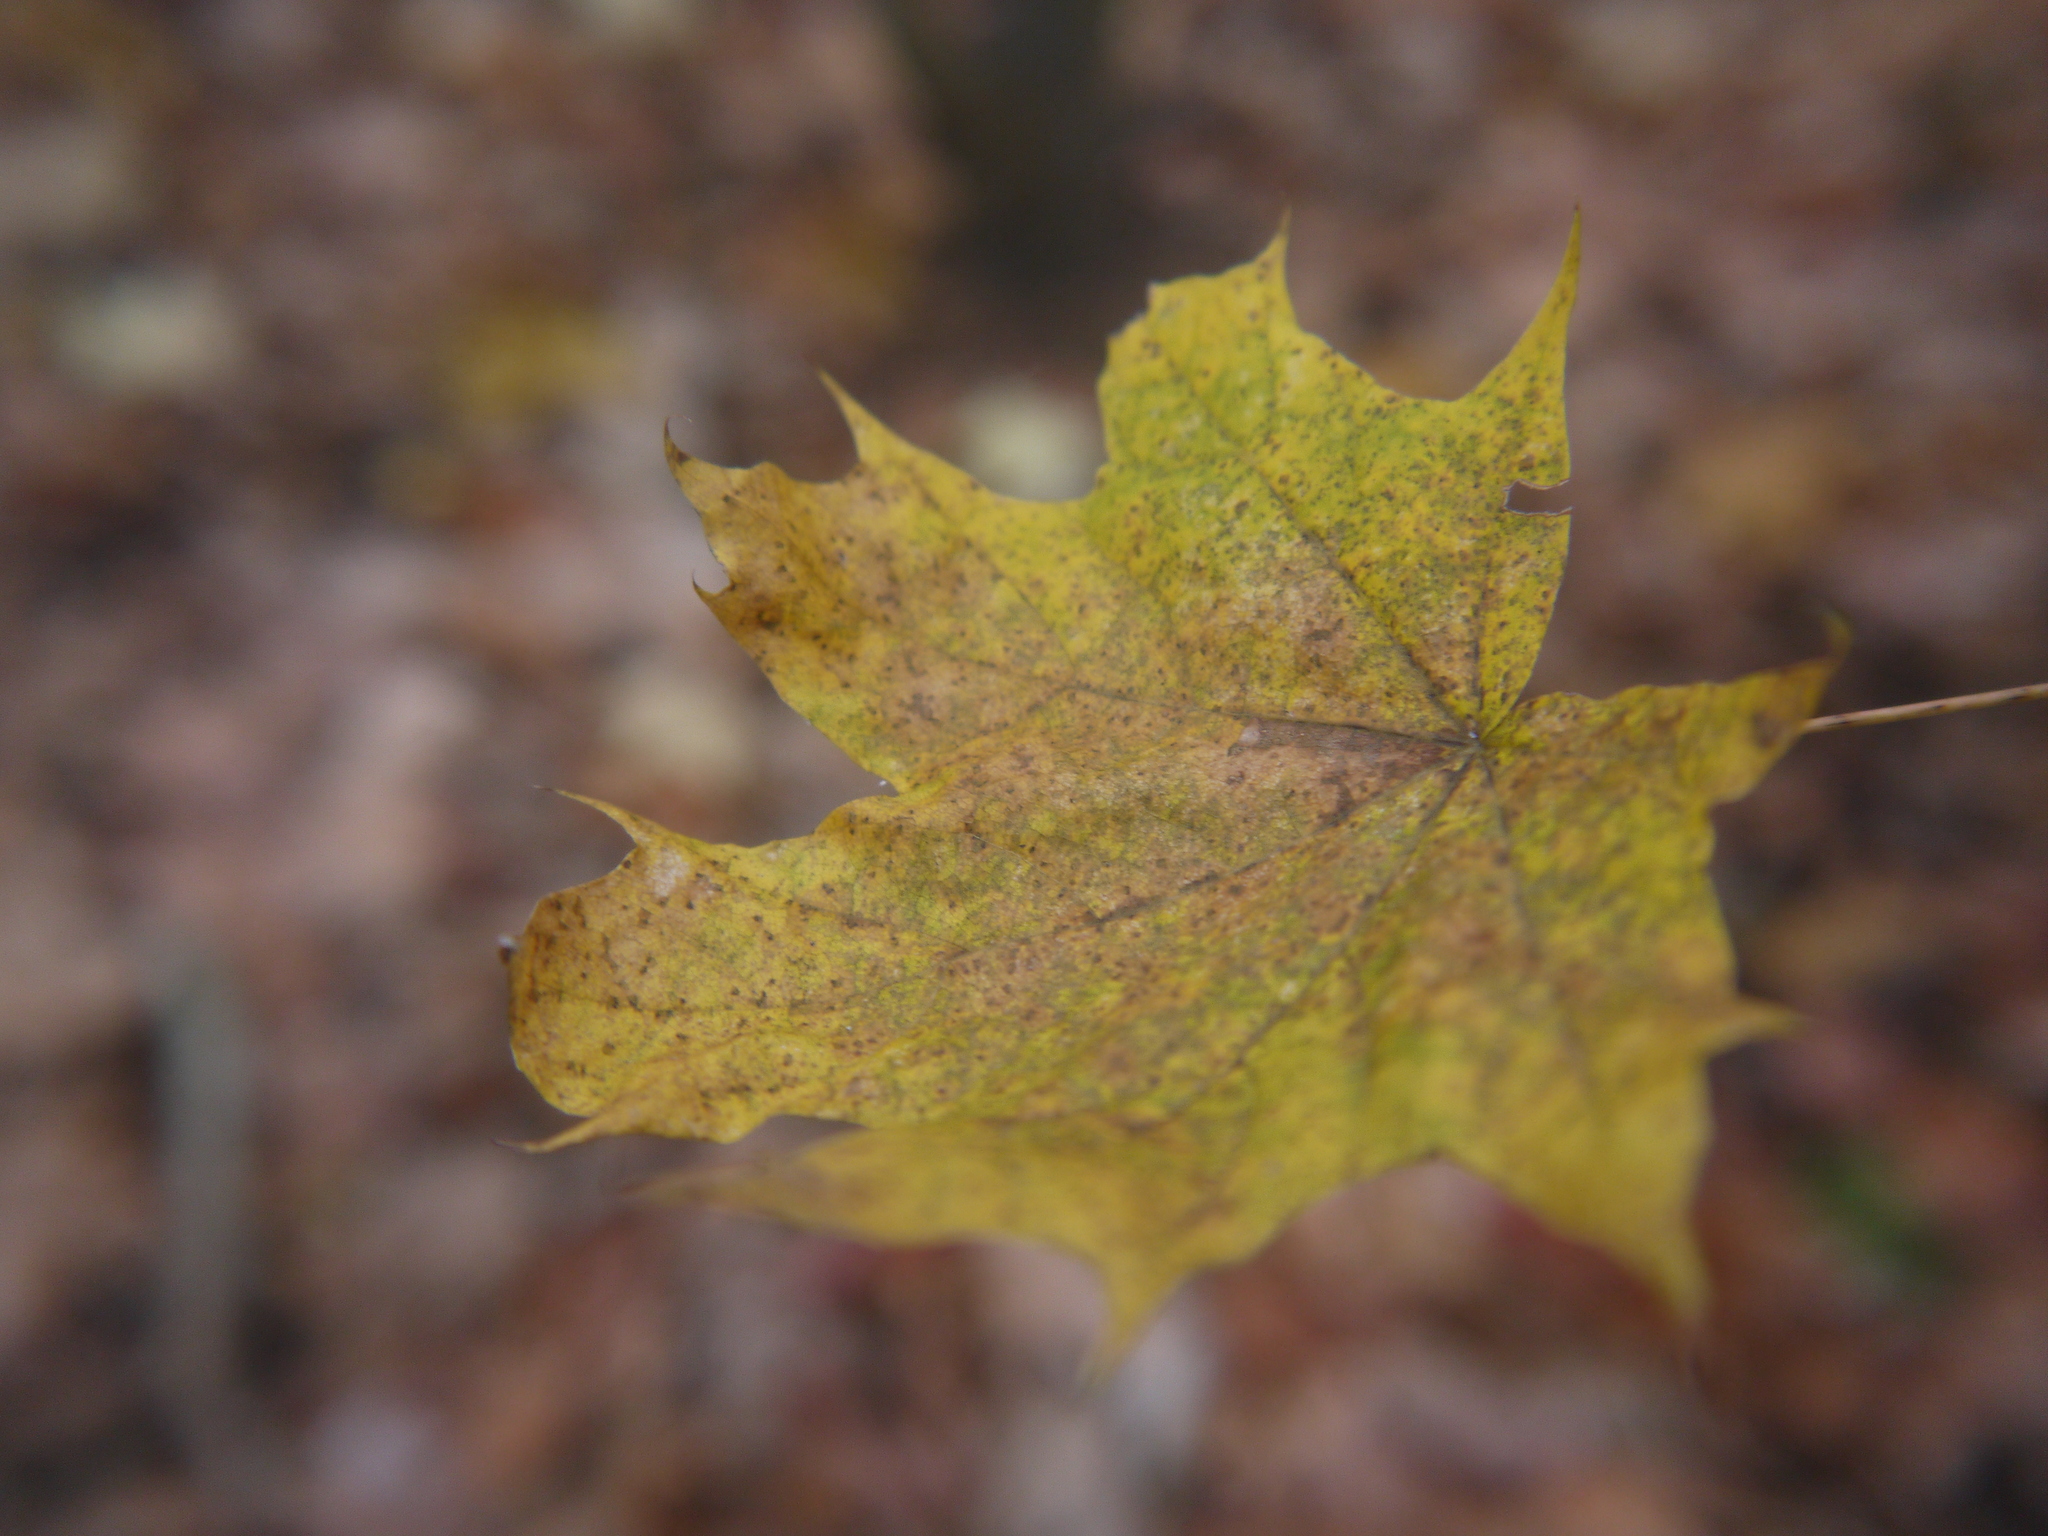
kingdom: Plantae
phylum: Tracheophyta
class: Magnoliopsida
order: Sapindales
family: Sapindaceae
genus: Acer
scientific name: Acer platanoides
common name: Norway maple
